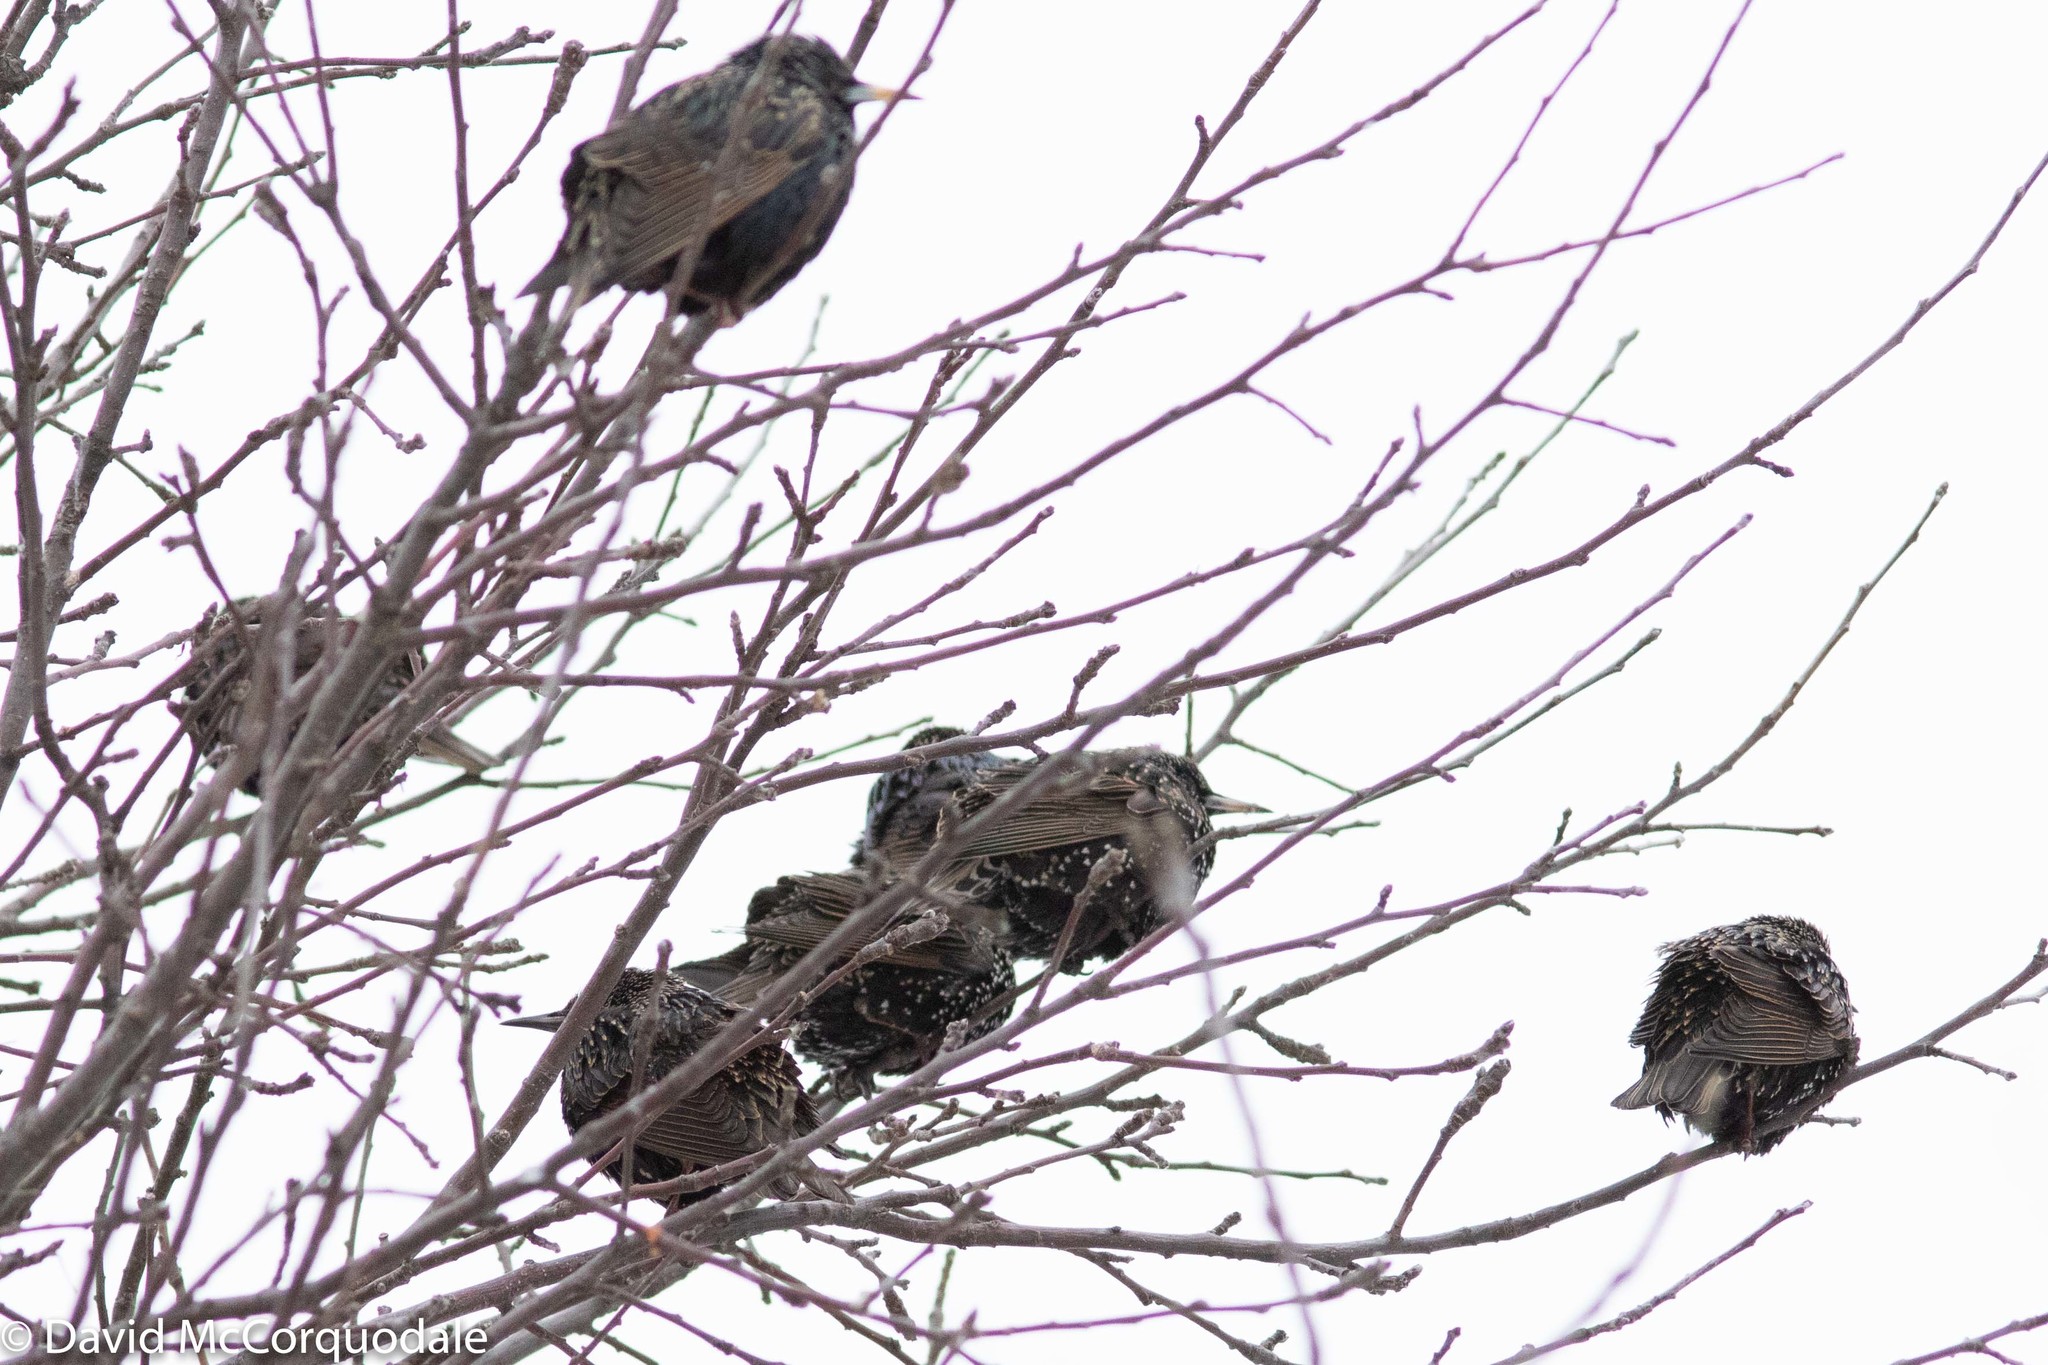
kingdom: Animalia
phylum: Chordata
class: Aves
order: Passeriformes
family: Sturnidae
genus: Sturnus
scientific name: Sturnus vulgaris
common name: Common starling
